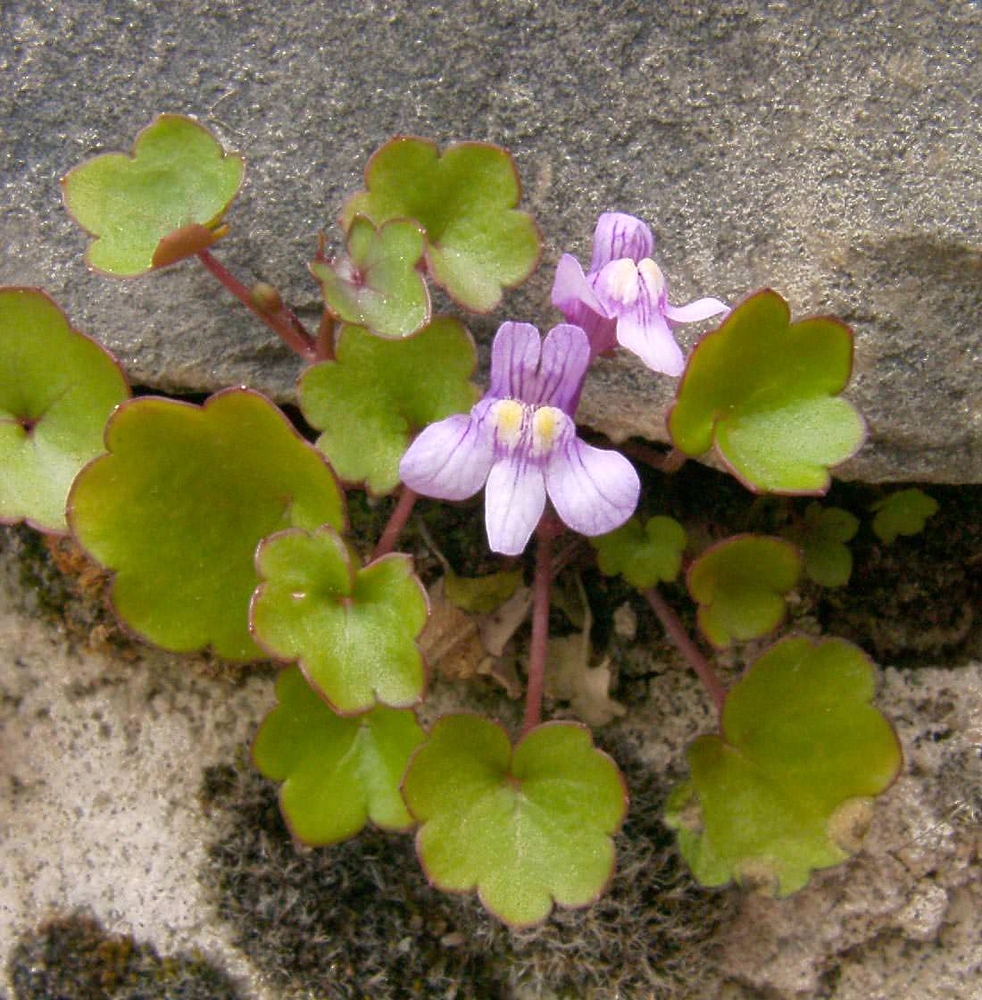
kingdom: Plantae
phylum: Tracheophyta
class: Magnoliopsida
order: Lamiales
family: Plantaginaceae
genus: Cymbalaria
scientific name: Cymbalaria muralis
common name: Ivy-leaved toadflax
